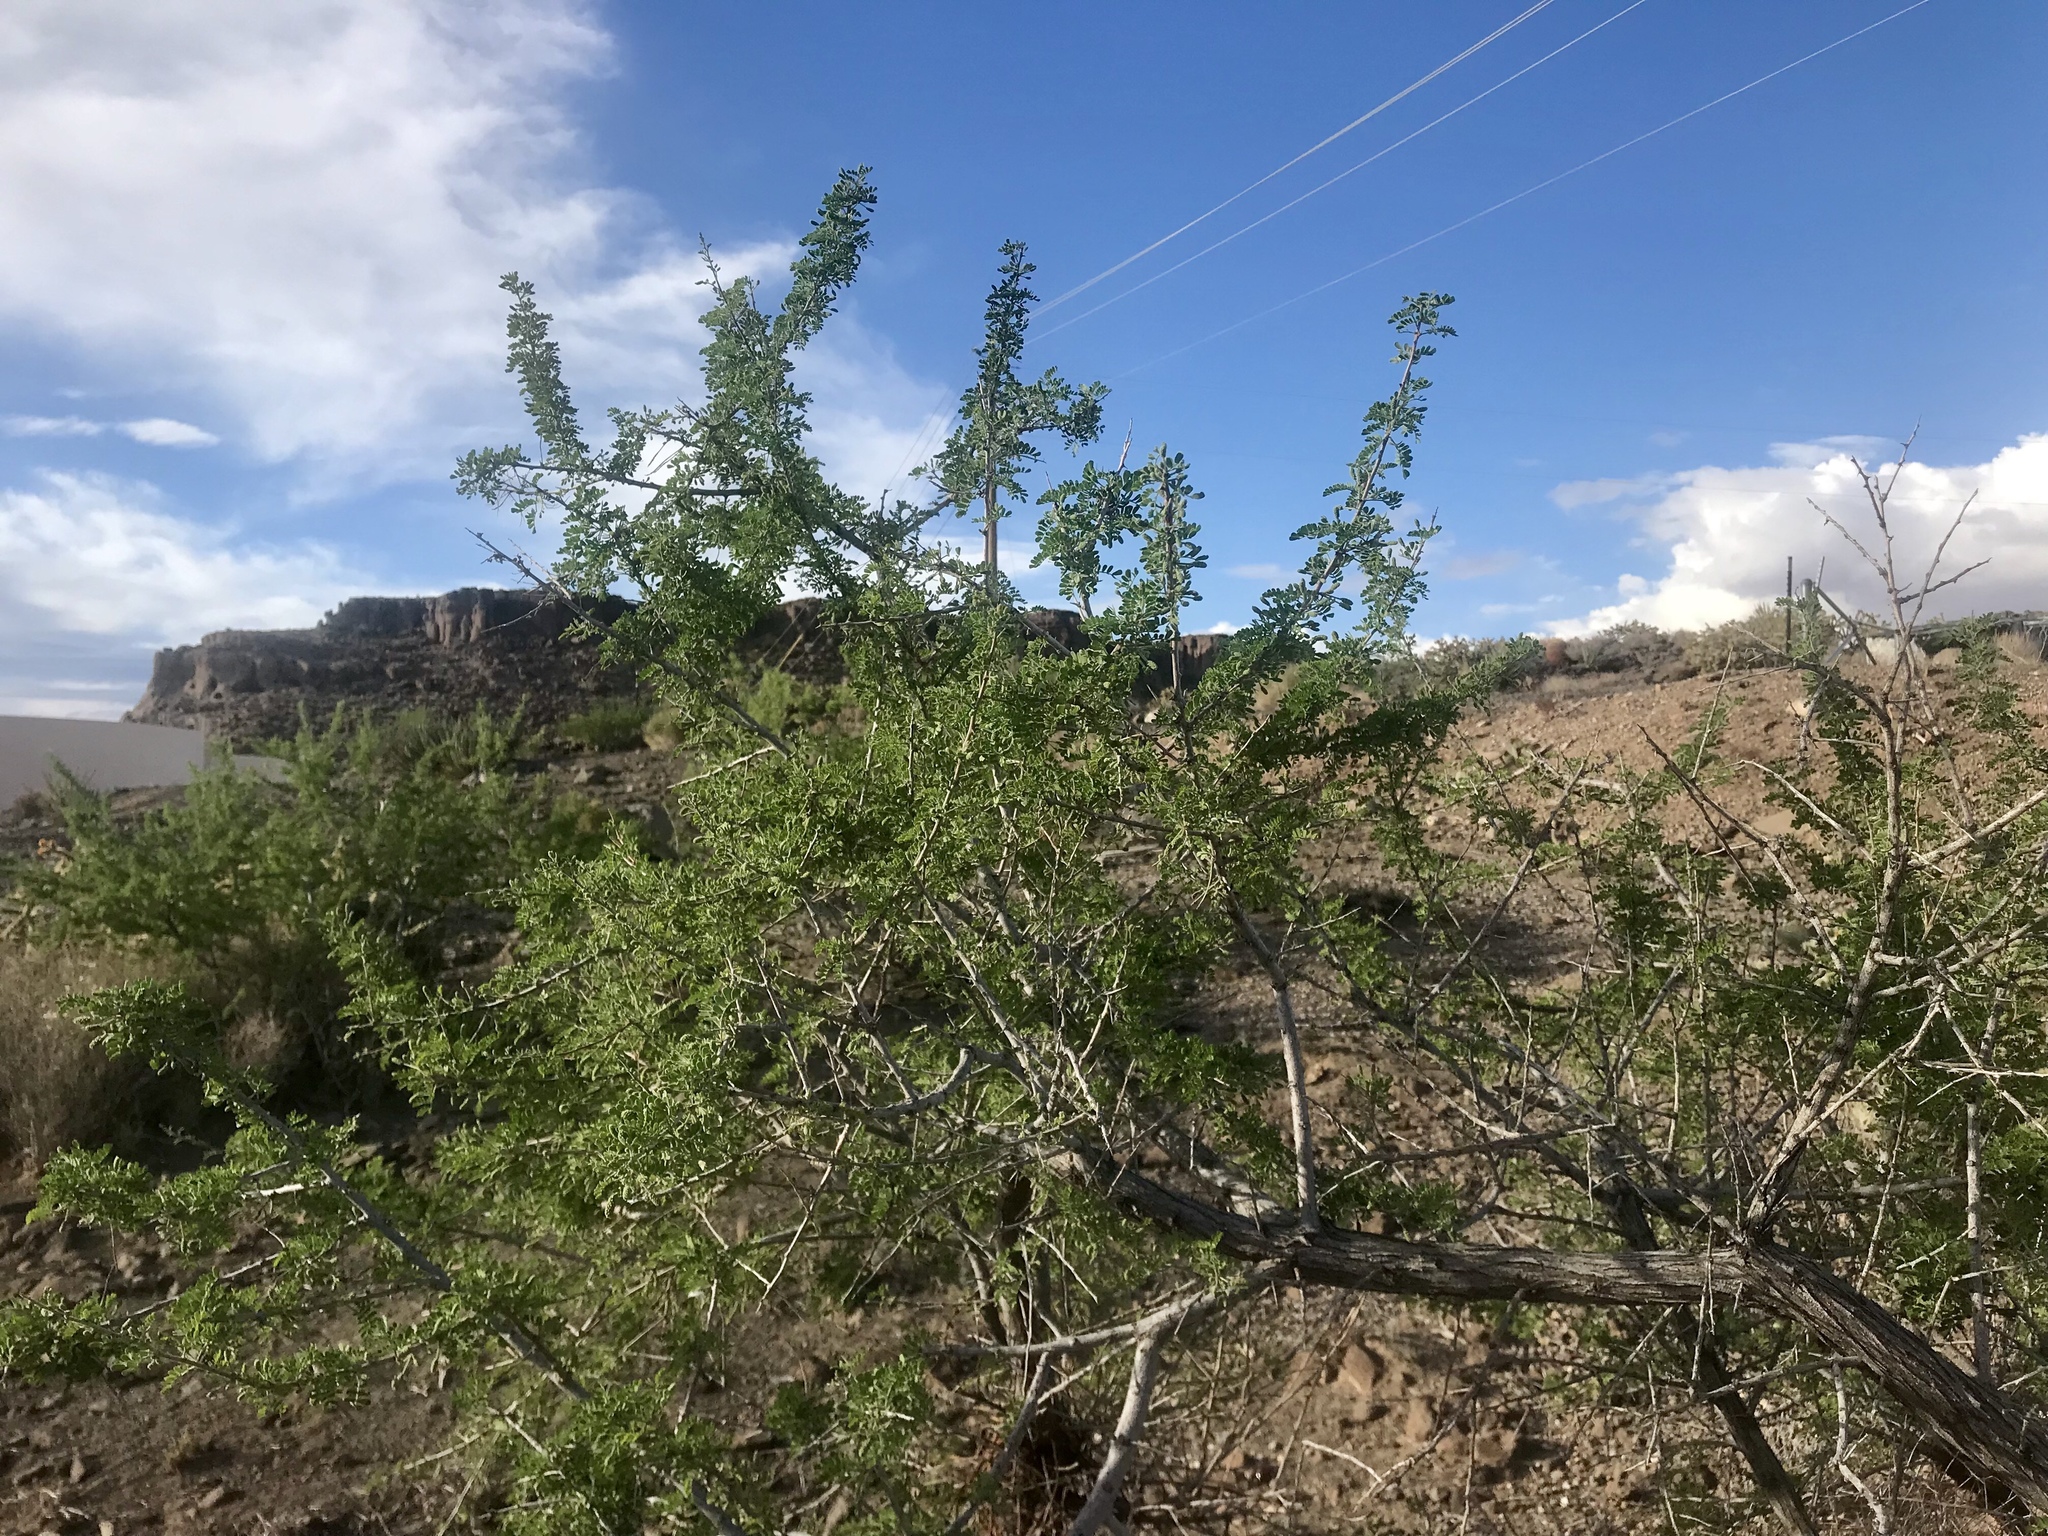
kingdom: Plantae
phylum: Tracheophyta
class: Magnoliopsida
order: Fabales
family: Fabaceae
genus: Senegalia
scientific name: Senegalia greggii
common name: Texas-mimosa
